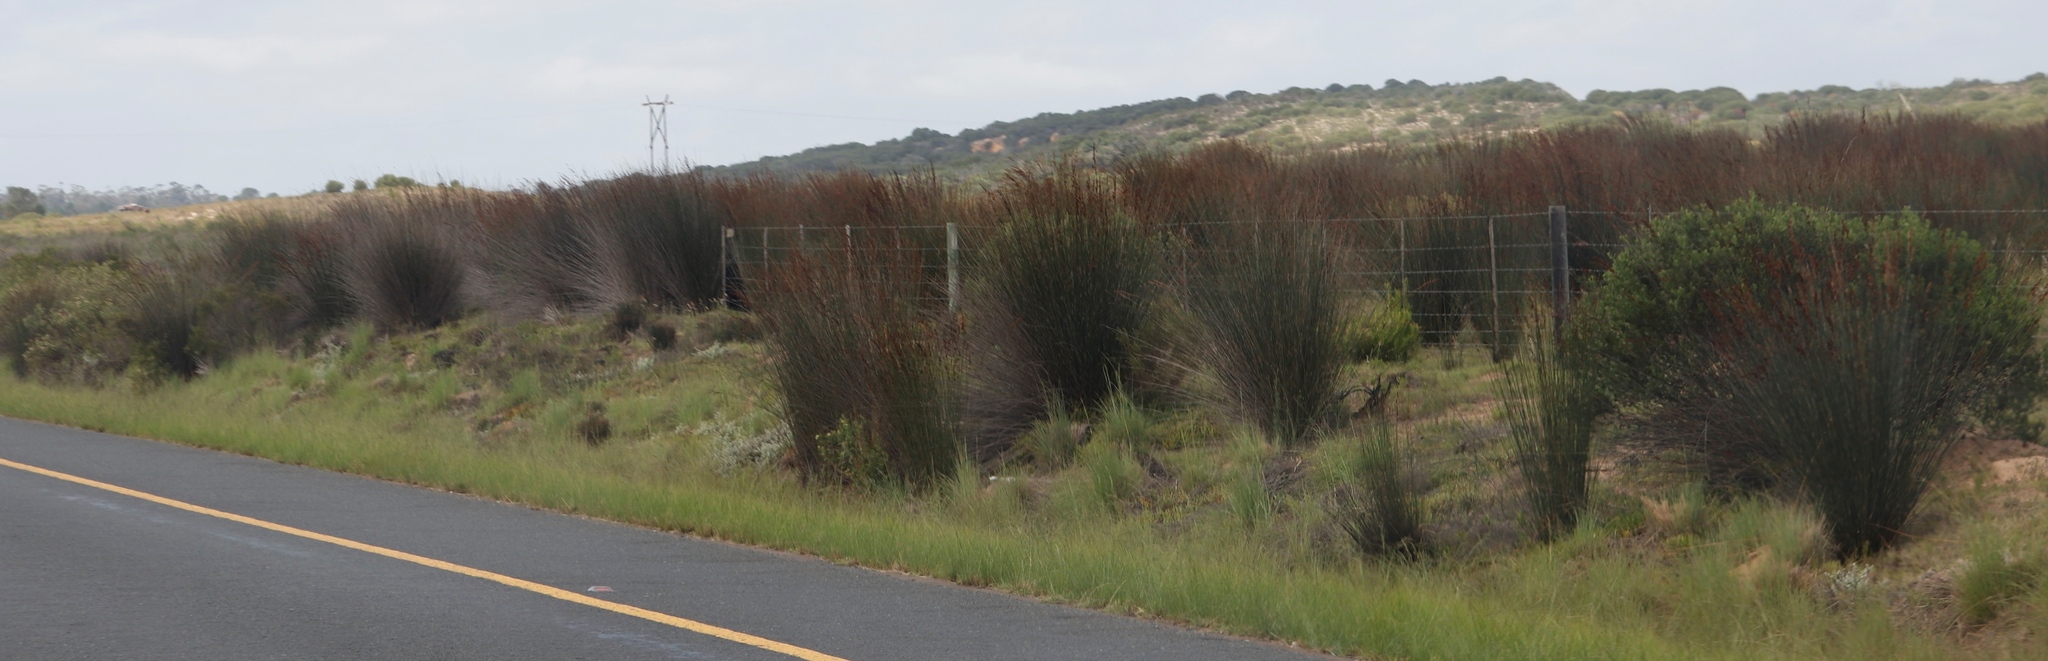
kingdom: Plantae
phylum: Tracheophyta
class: Liliopsida
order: Poales
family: Restionaceae
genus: Thamnochortus
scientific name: Thamnochortus insignis
